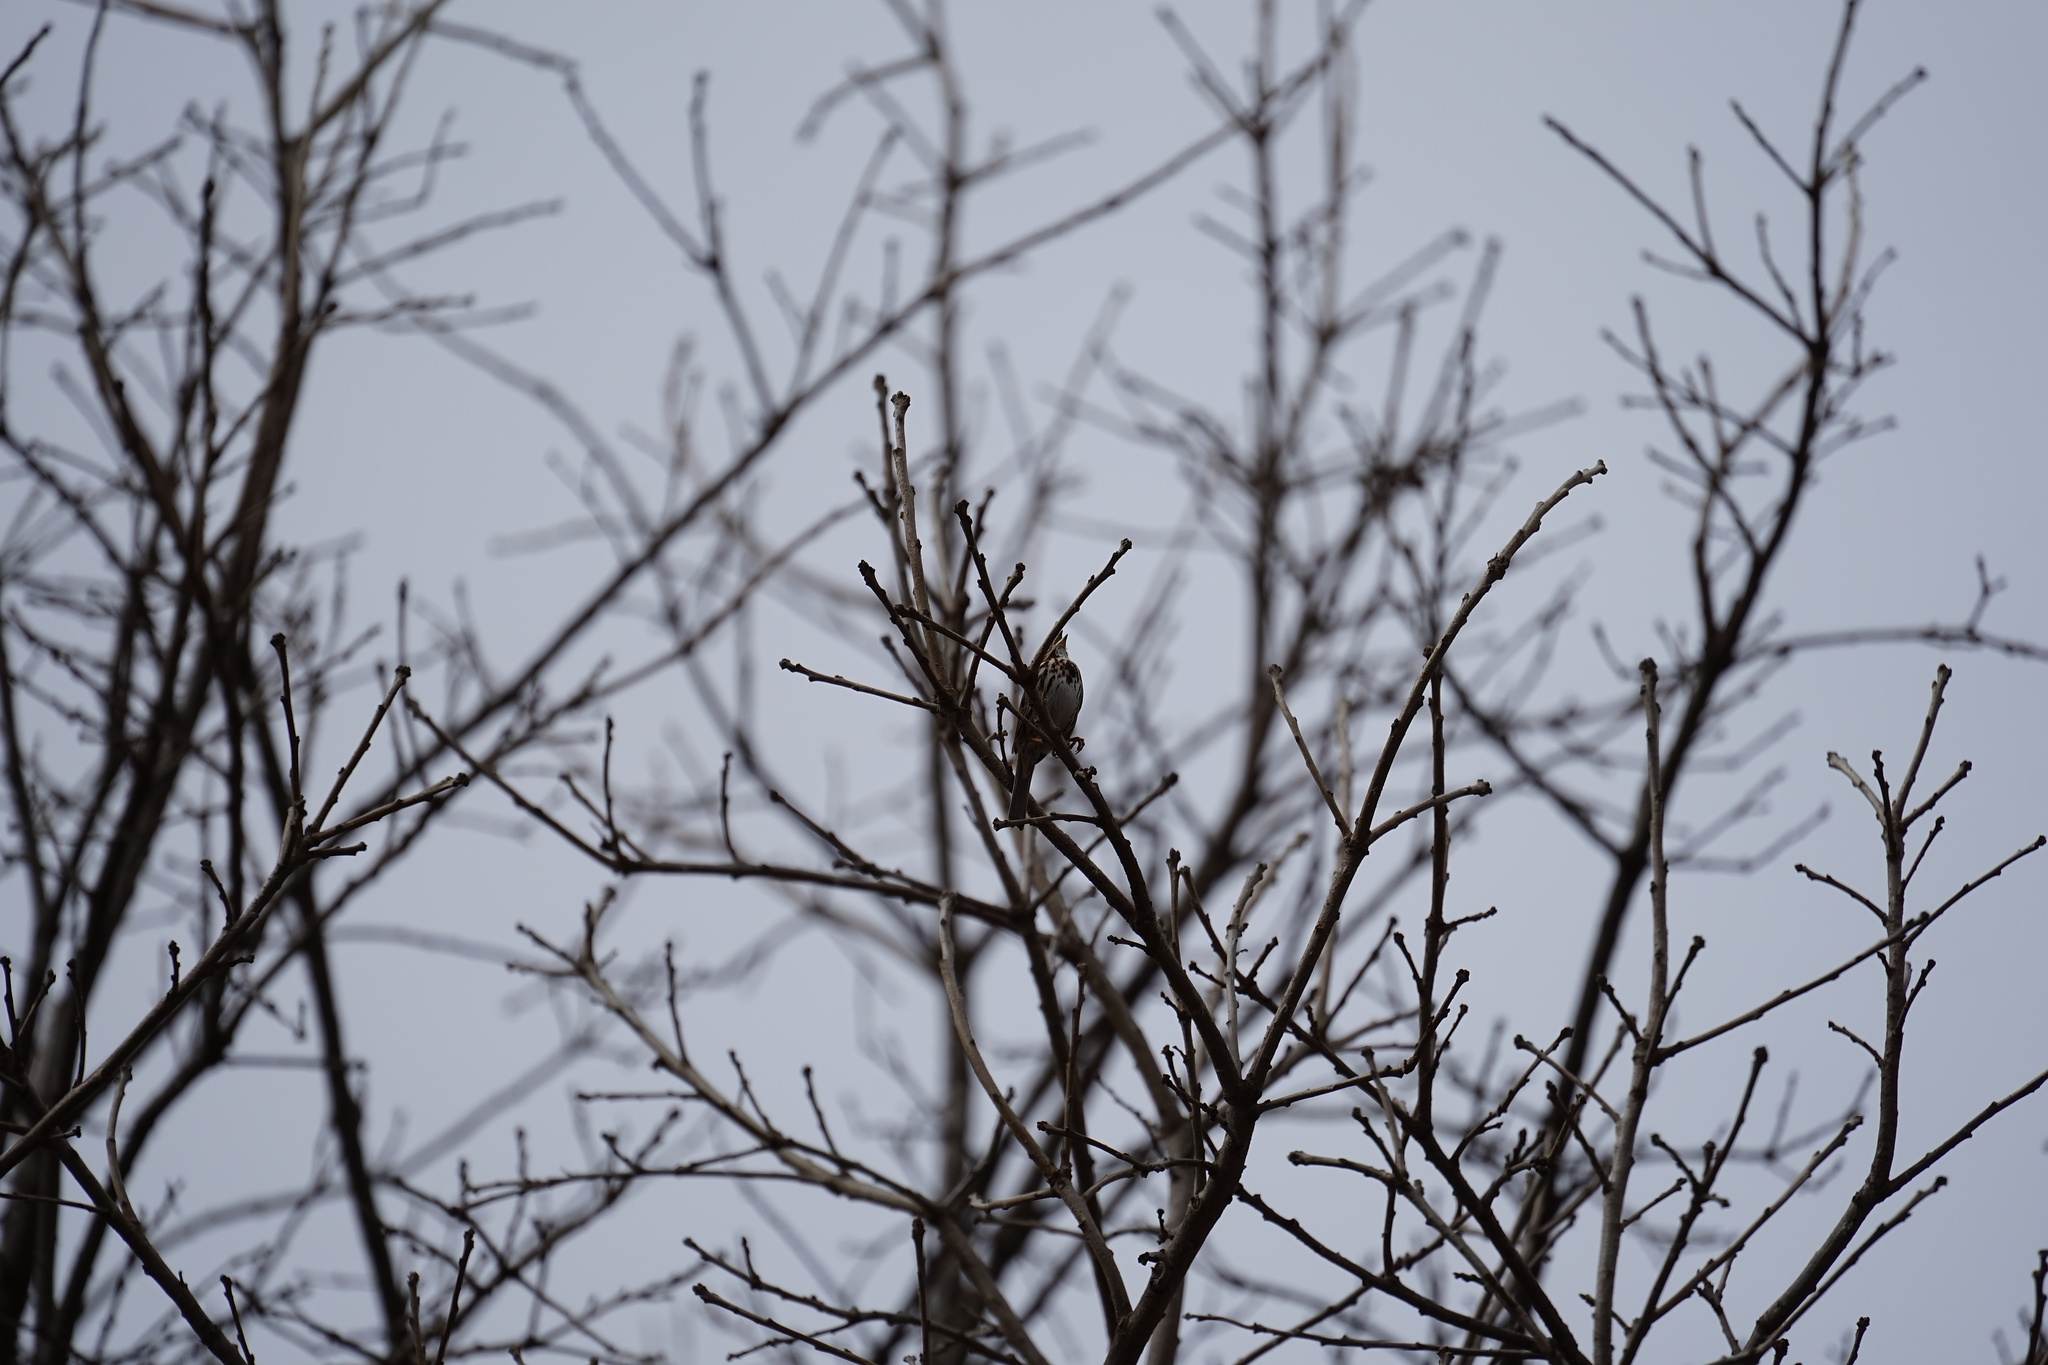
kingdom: Animalia
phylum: Chordata
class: Aves
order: Passeriformes
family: Passerellidae
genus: Melospiza
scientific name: Melospiza melodia
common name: Song sparrow
